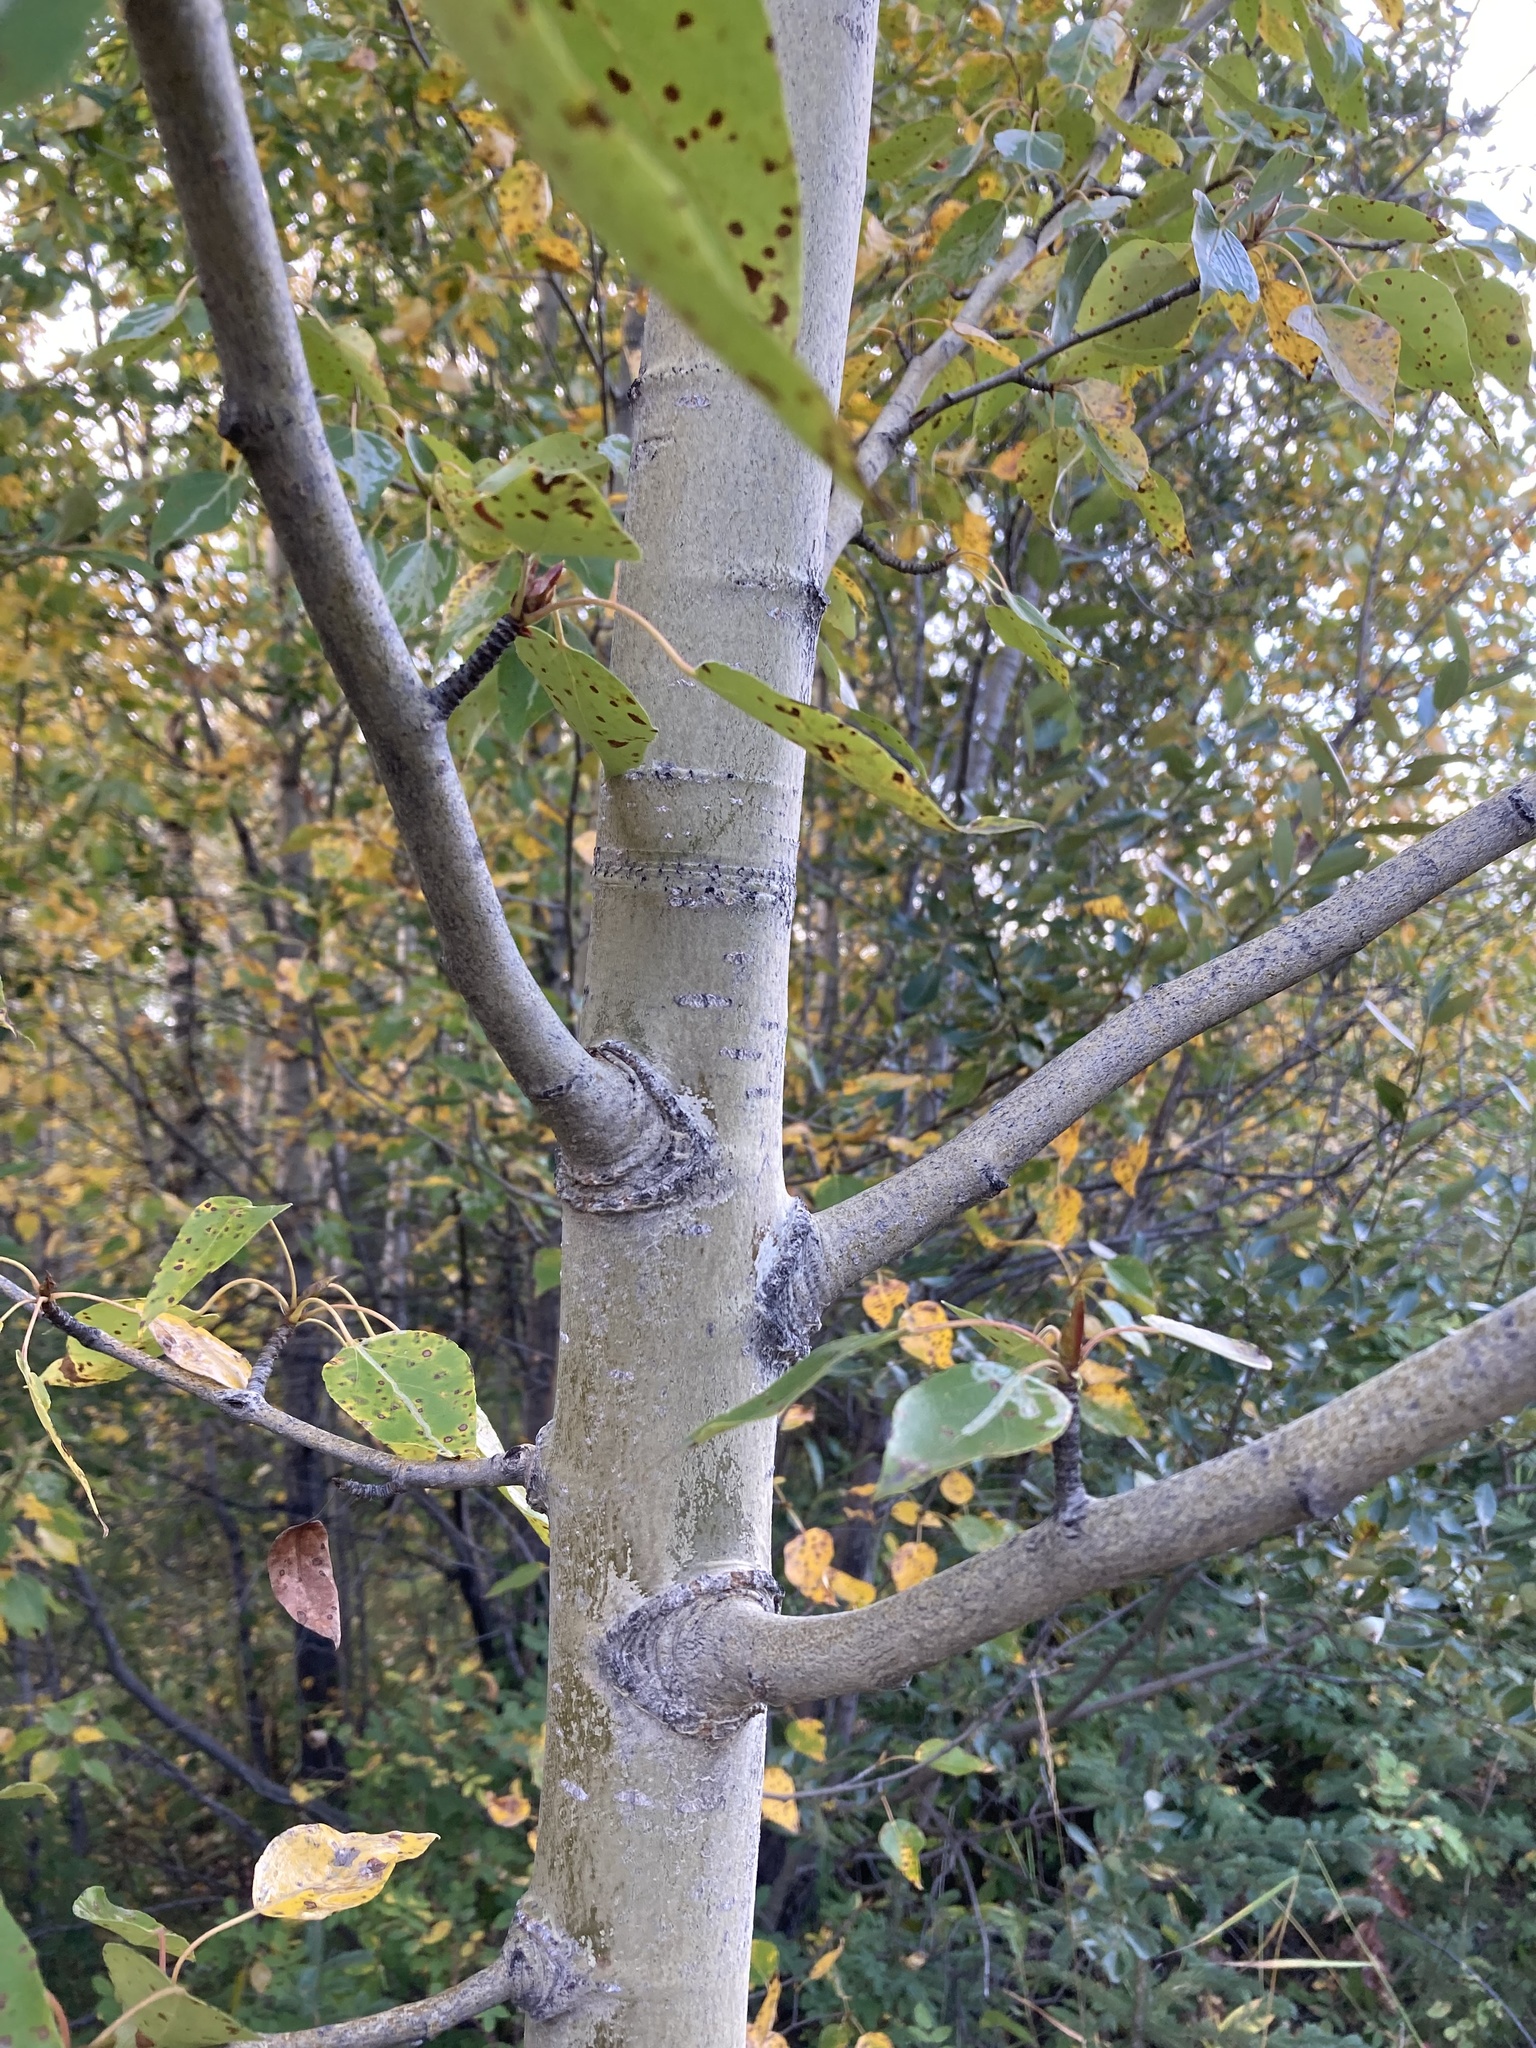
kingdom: Plantae
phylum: Tracheophyta
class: Magnoliopsida
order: Malpighiales
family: Salicaceae
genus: Populus
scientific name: Populus balsamifera
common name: Balsam poplar
